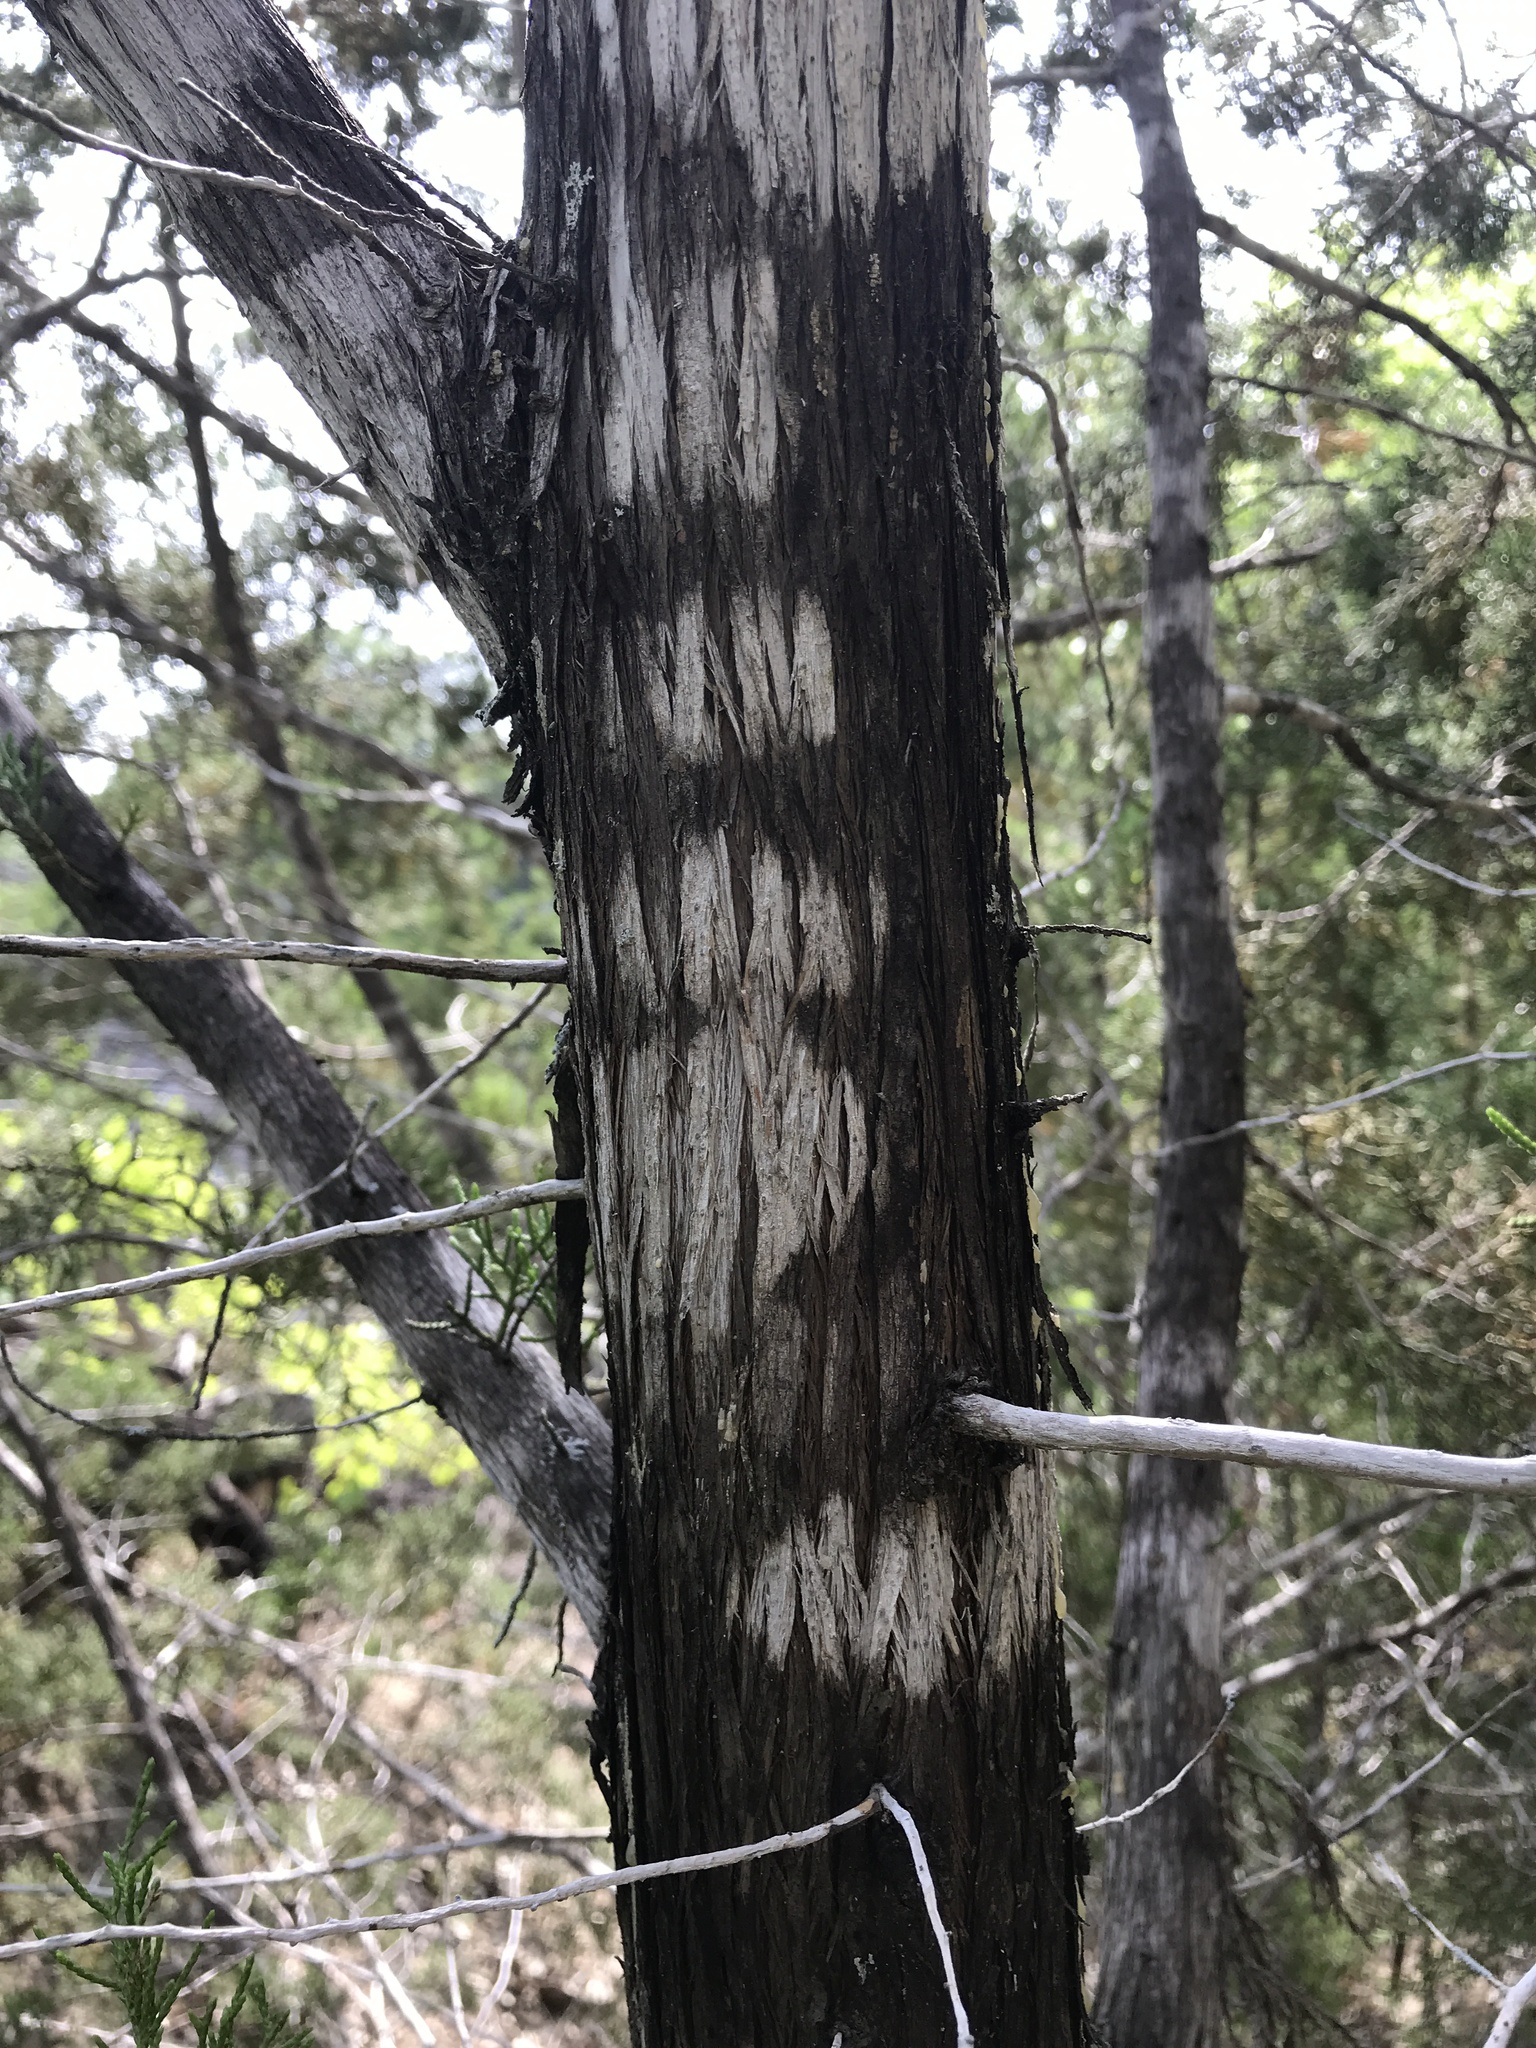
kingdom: Plantae
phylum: Tracheophyta
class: Pinopsida
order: Pinales
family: Cupressaceae
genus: Juniperus
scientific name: Juniperus ashei
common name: Mexican juniper
